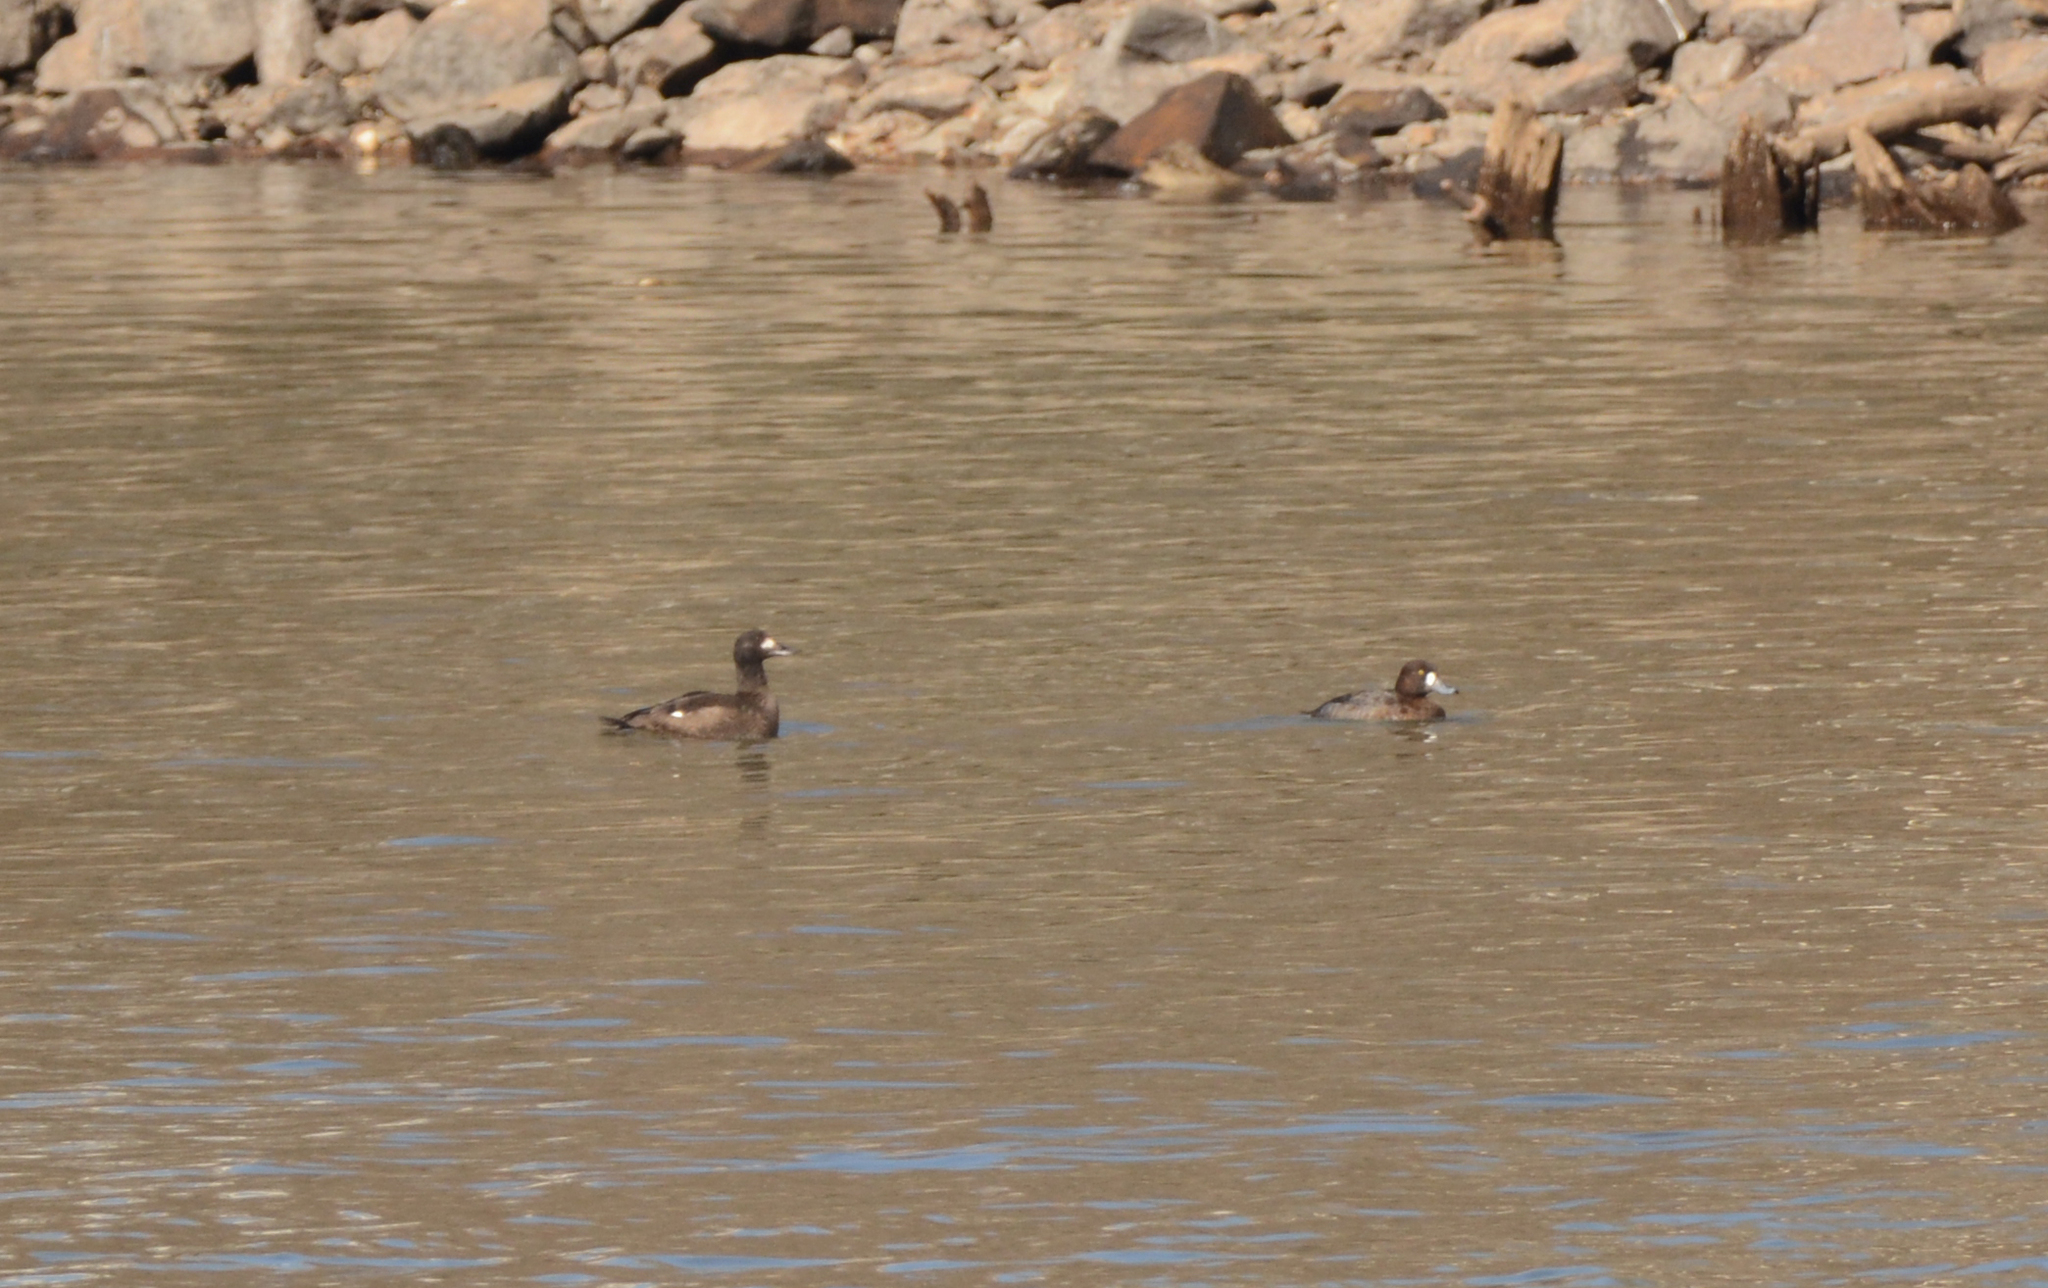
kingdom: Animalia
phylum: Chordata
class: Aves
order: Anseriformes
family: Anatidae
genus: Melanitta
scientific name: Melanitta fusca
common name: Velvet scoter
